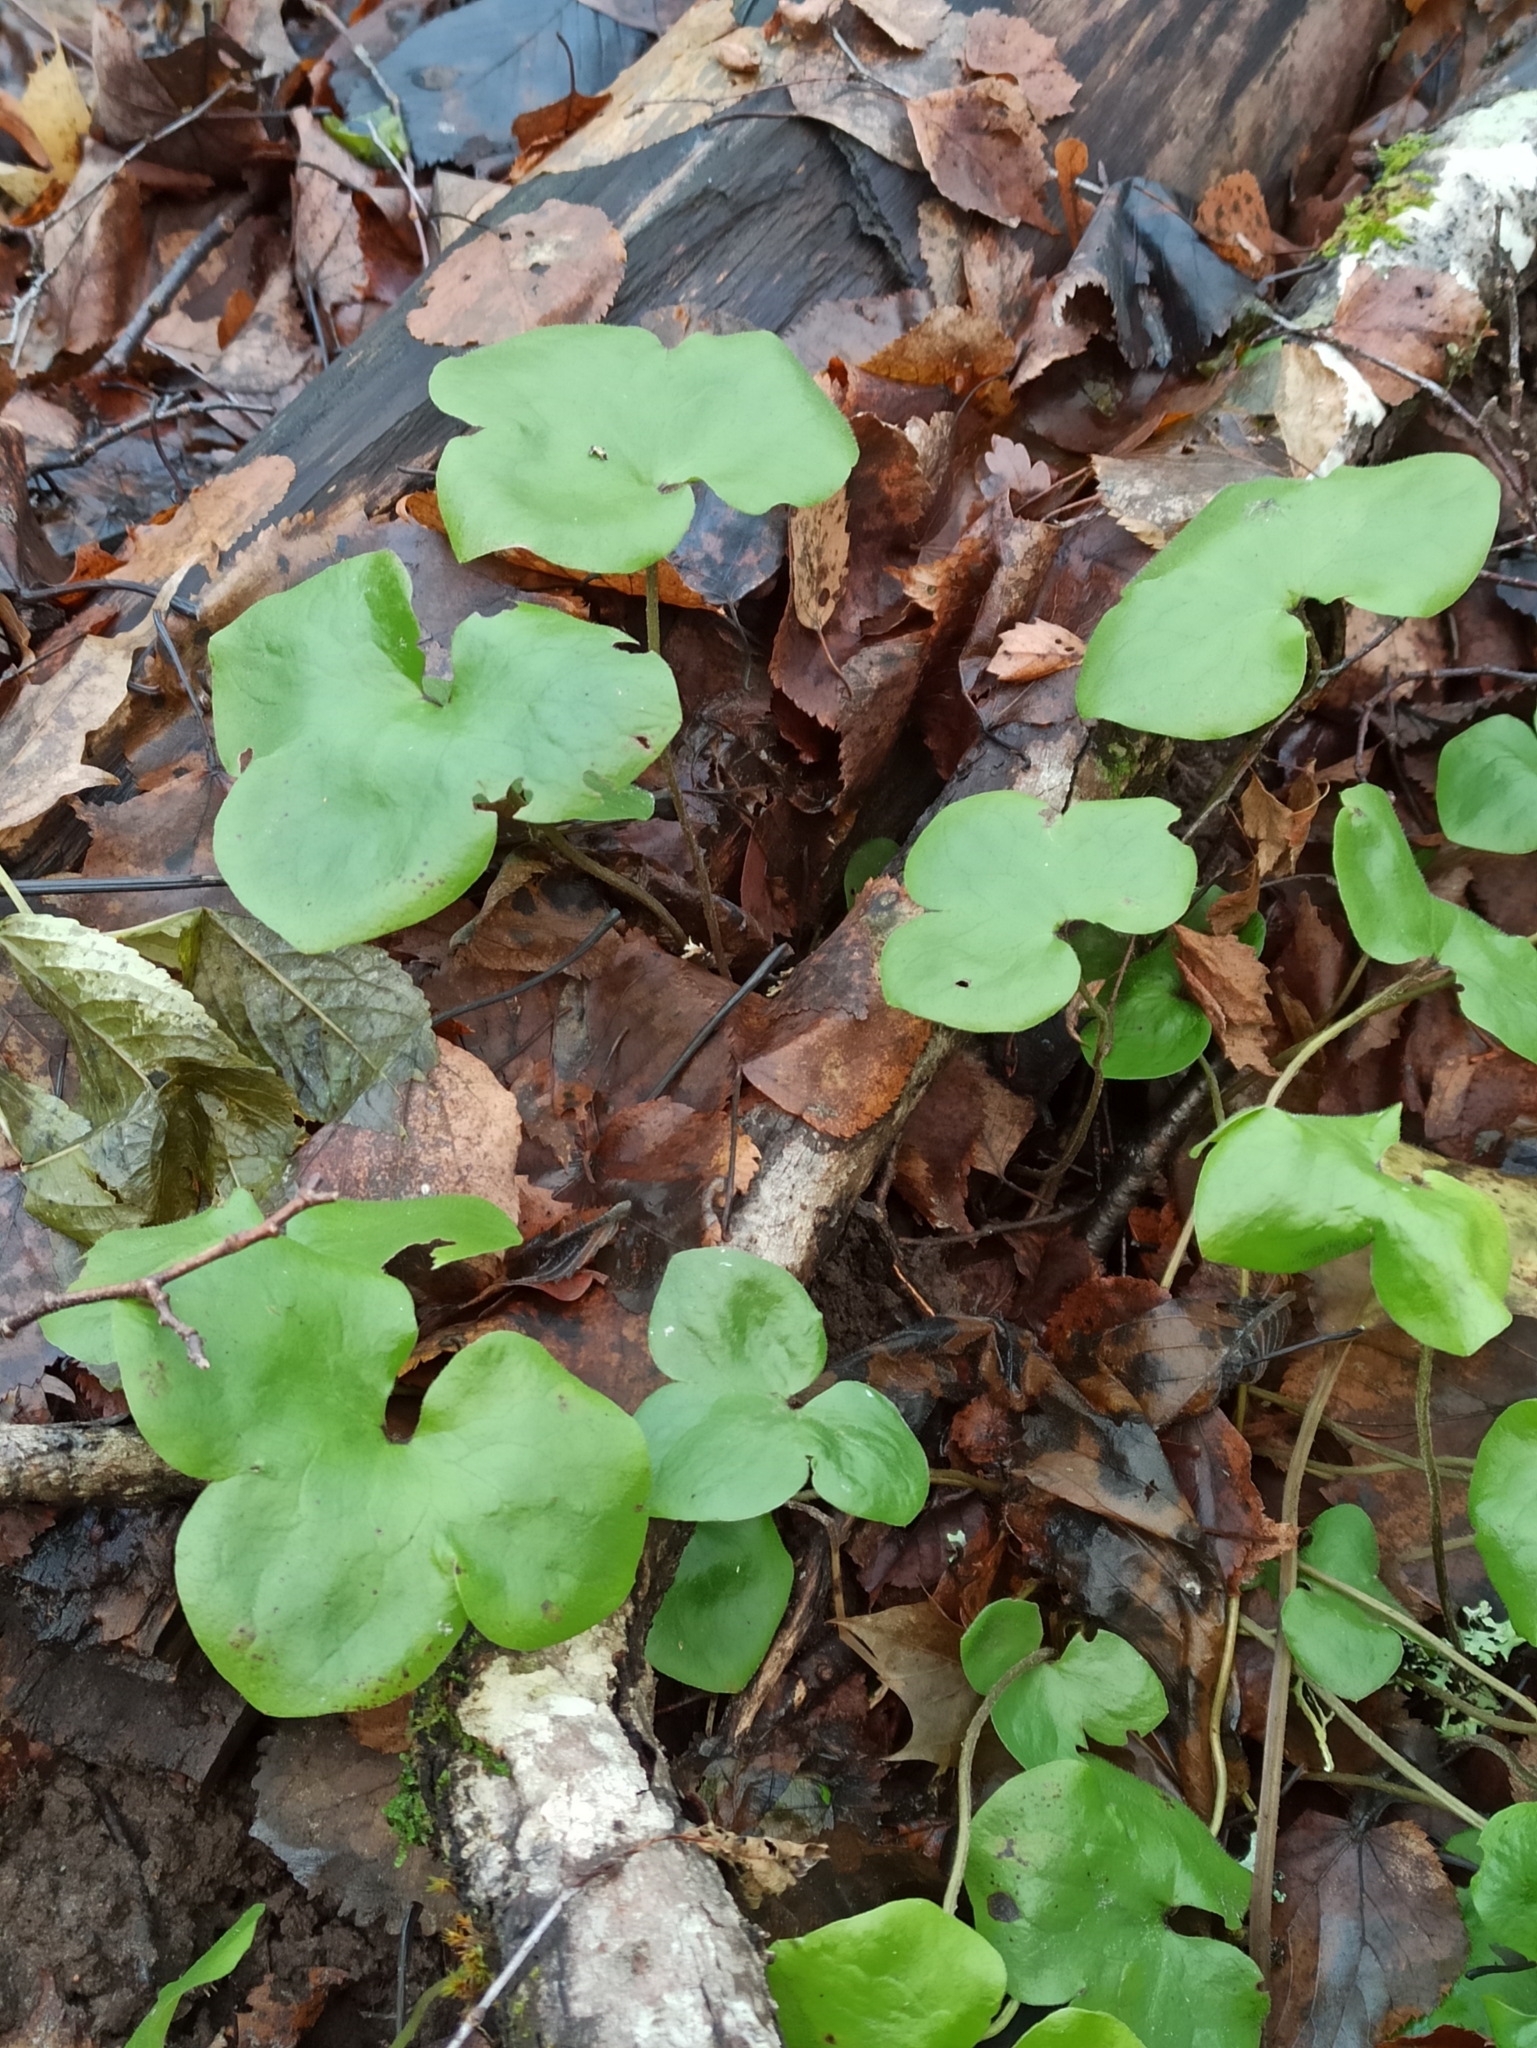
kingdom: Plantae
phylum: Tracheophyta
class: Magnoliopsida
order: Ranunculales
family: Ranunculaceae
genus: Hepatica
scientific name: Hepatica nobilis
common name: Liverleaf
